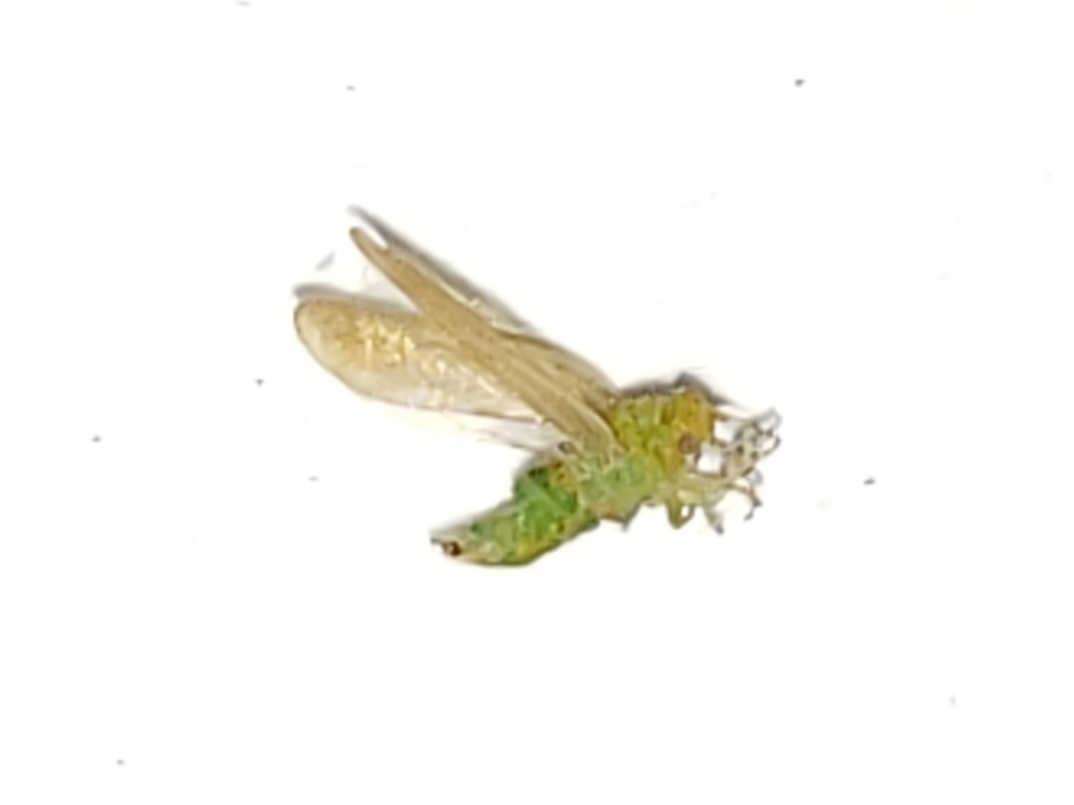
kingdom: Animalia
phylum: Arthropoda
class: Insecta
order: Hemiptera
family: Aphalaridae
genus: Craspedolepta
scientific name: Craspedolepta euthamiae
